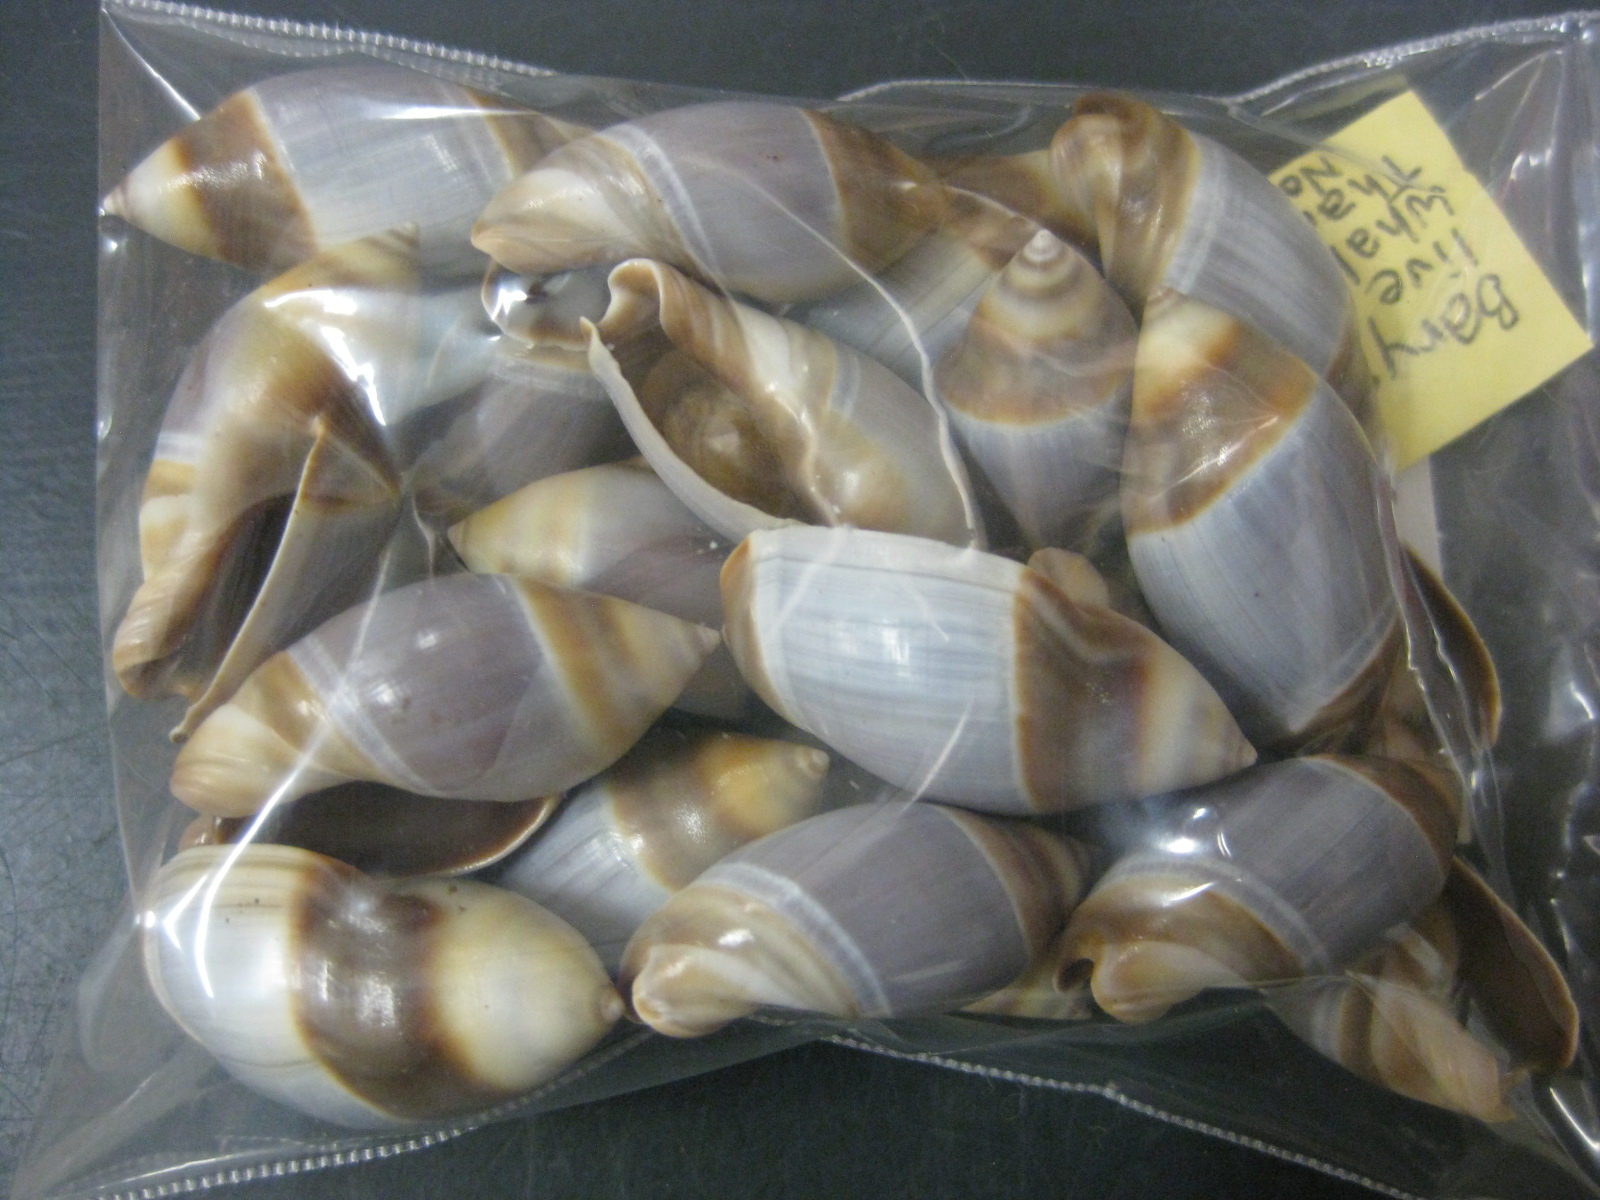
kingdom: Animalia
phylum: Mollusca
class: Gastropoda
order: Neogastropoda
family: Ancillariidae
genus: Amalda
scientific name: Amalda australis
